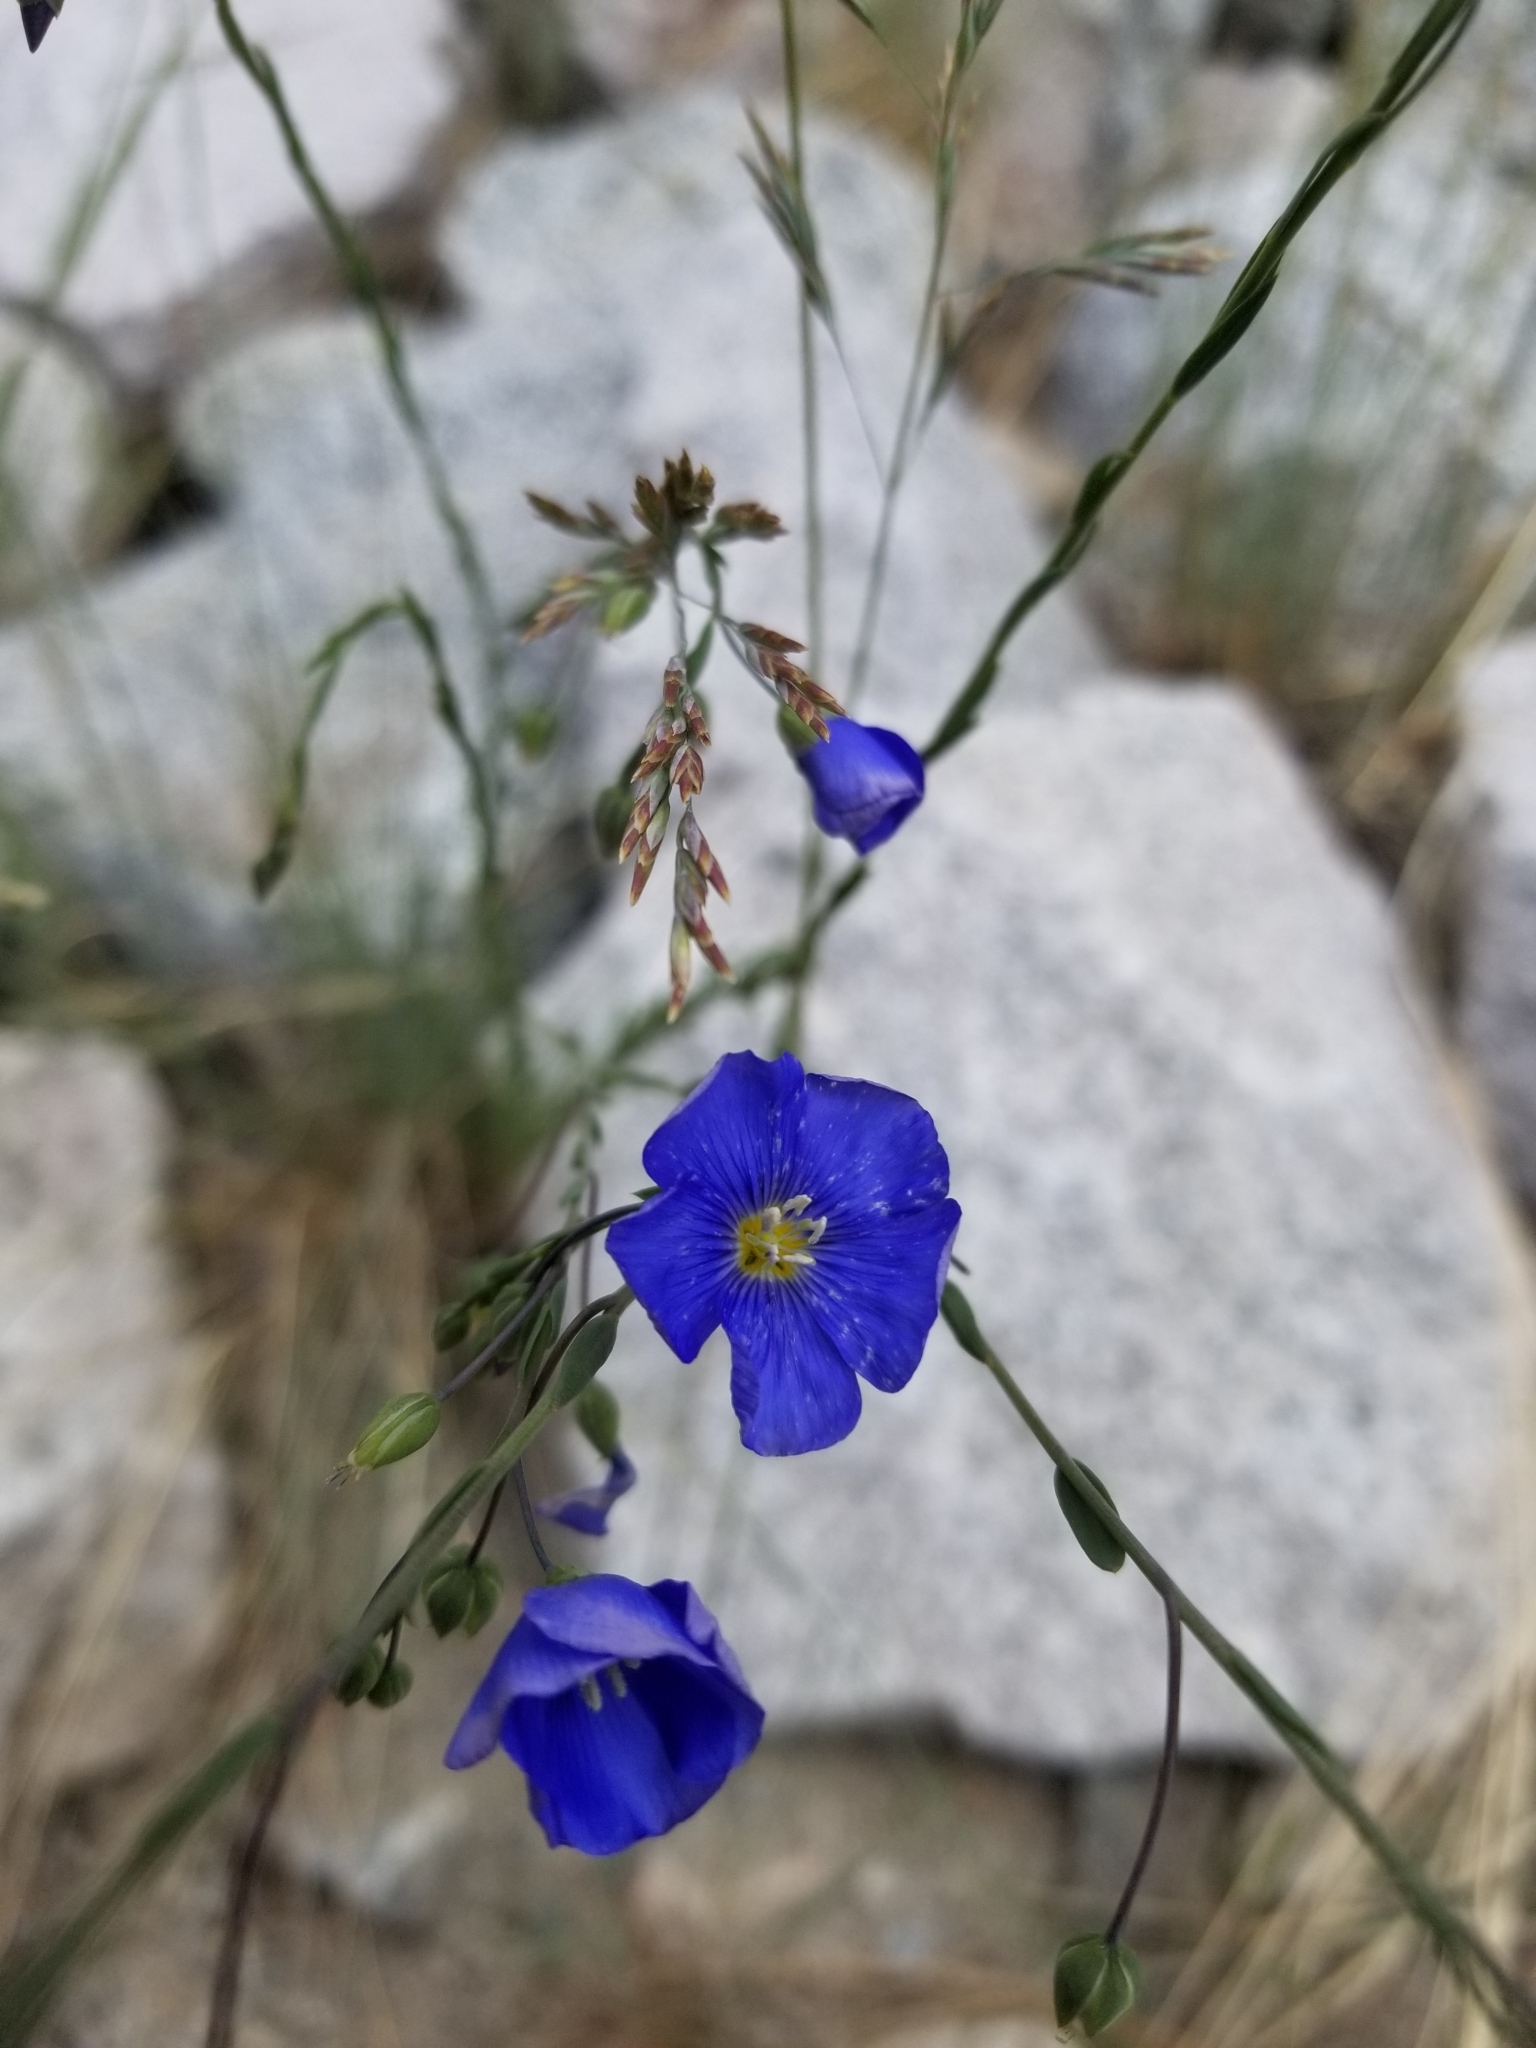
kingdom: Plantae
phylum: Tracheophyta
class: Magnoliopsida
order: Malpighiales
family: Linaceae
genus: Linum
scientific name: Linum lewisii
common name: Prairie flax
